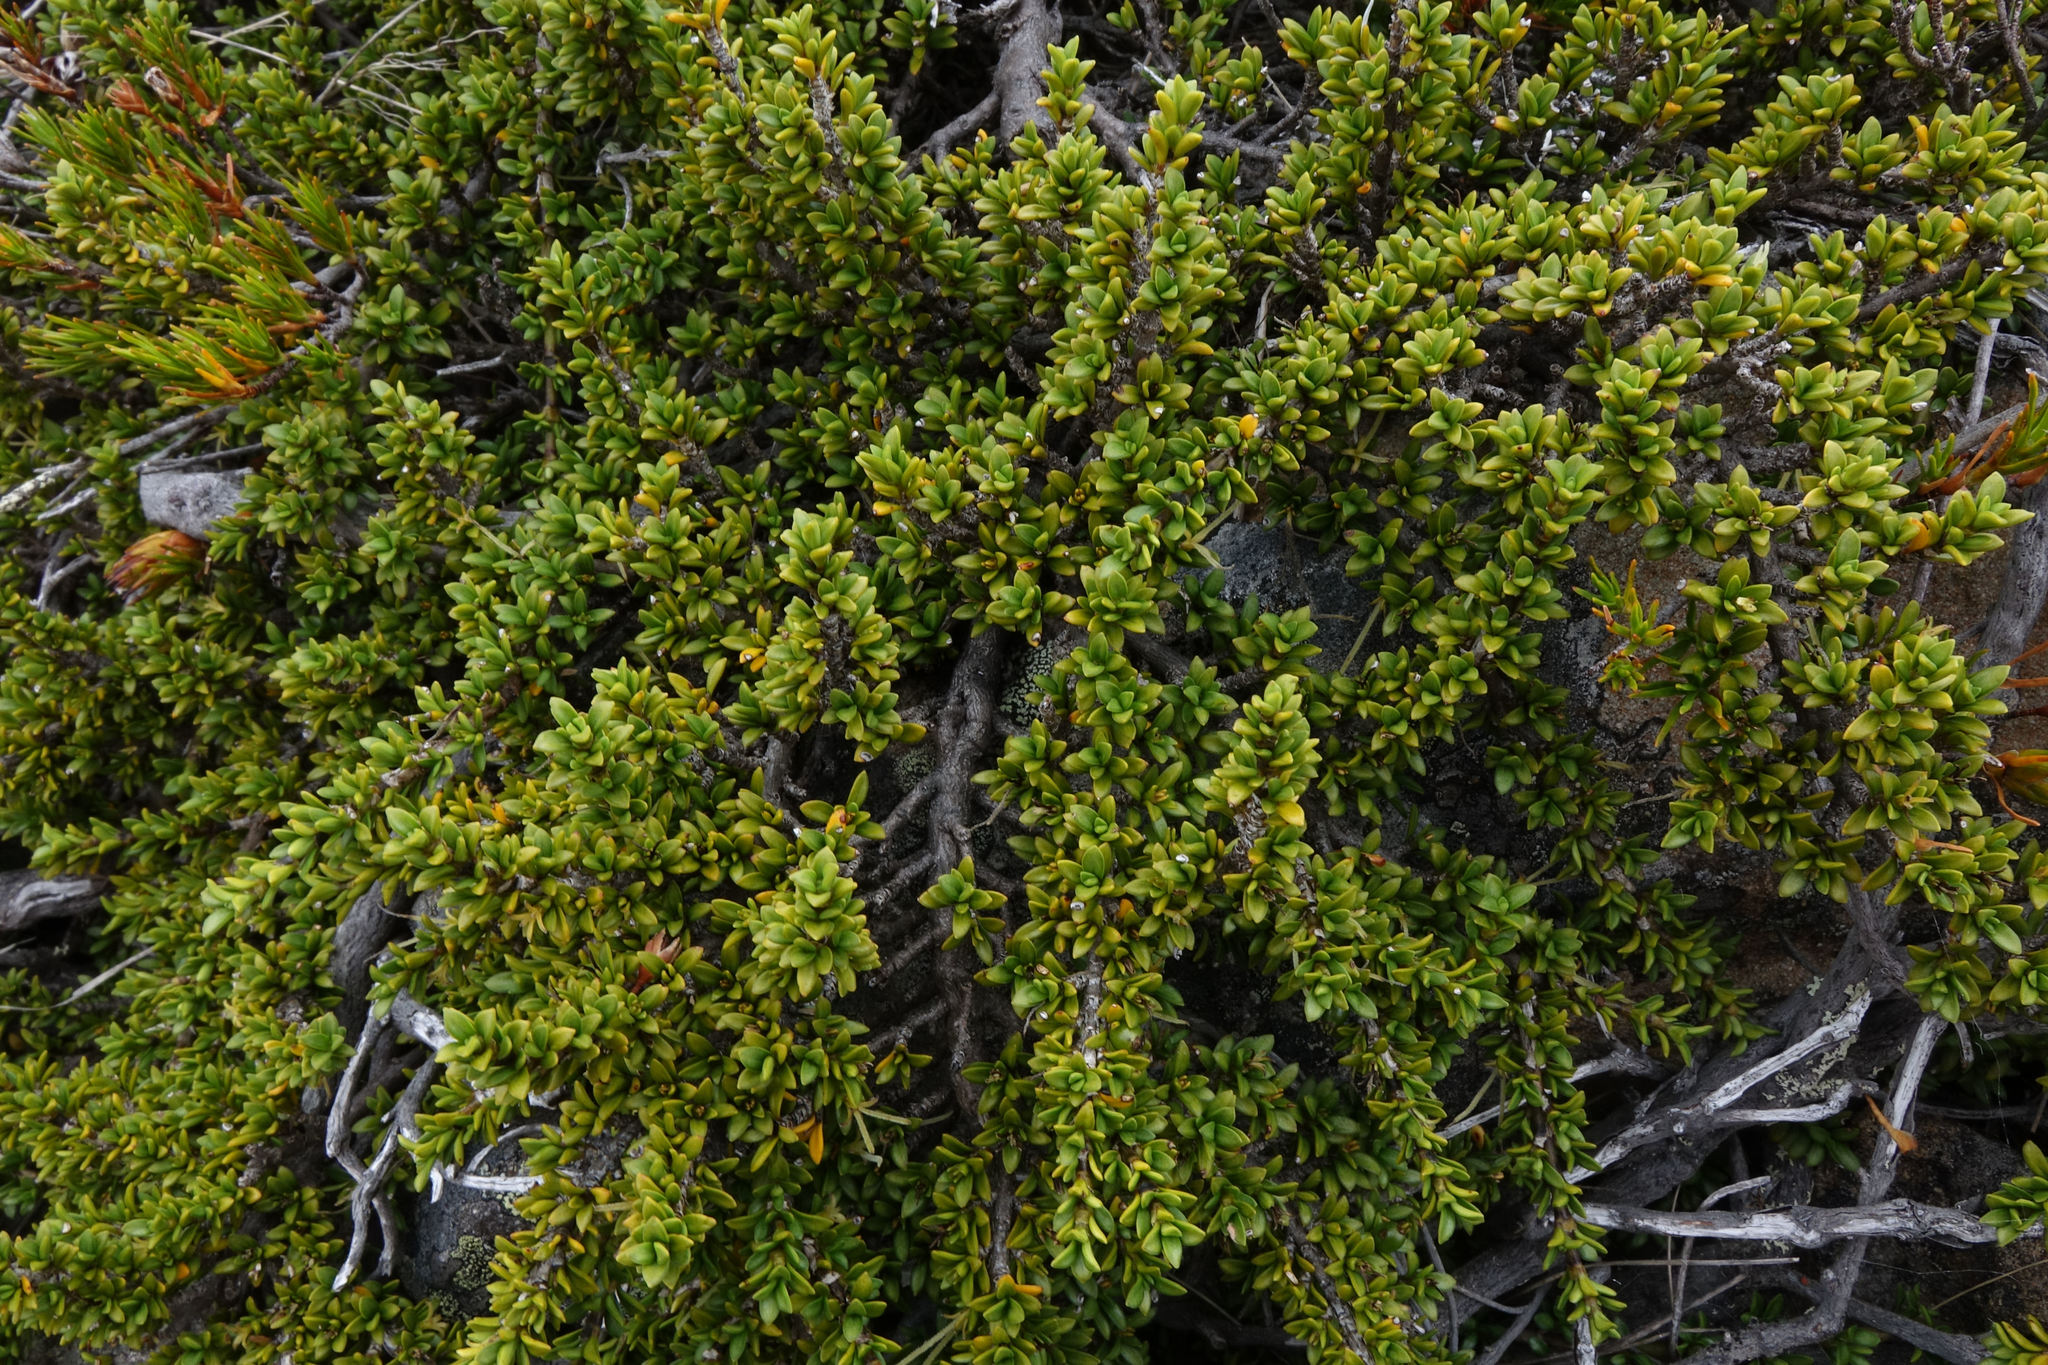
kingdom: Plantae
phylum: Tracheophyta
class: Magnoliopsida
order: Gentianales
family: Rubiaceae
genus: Coprosma
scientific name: Coprosma fowerakeri
